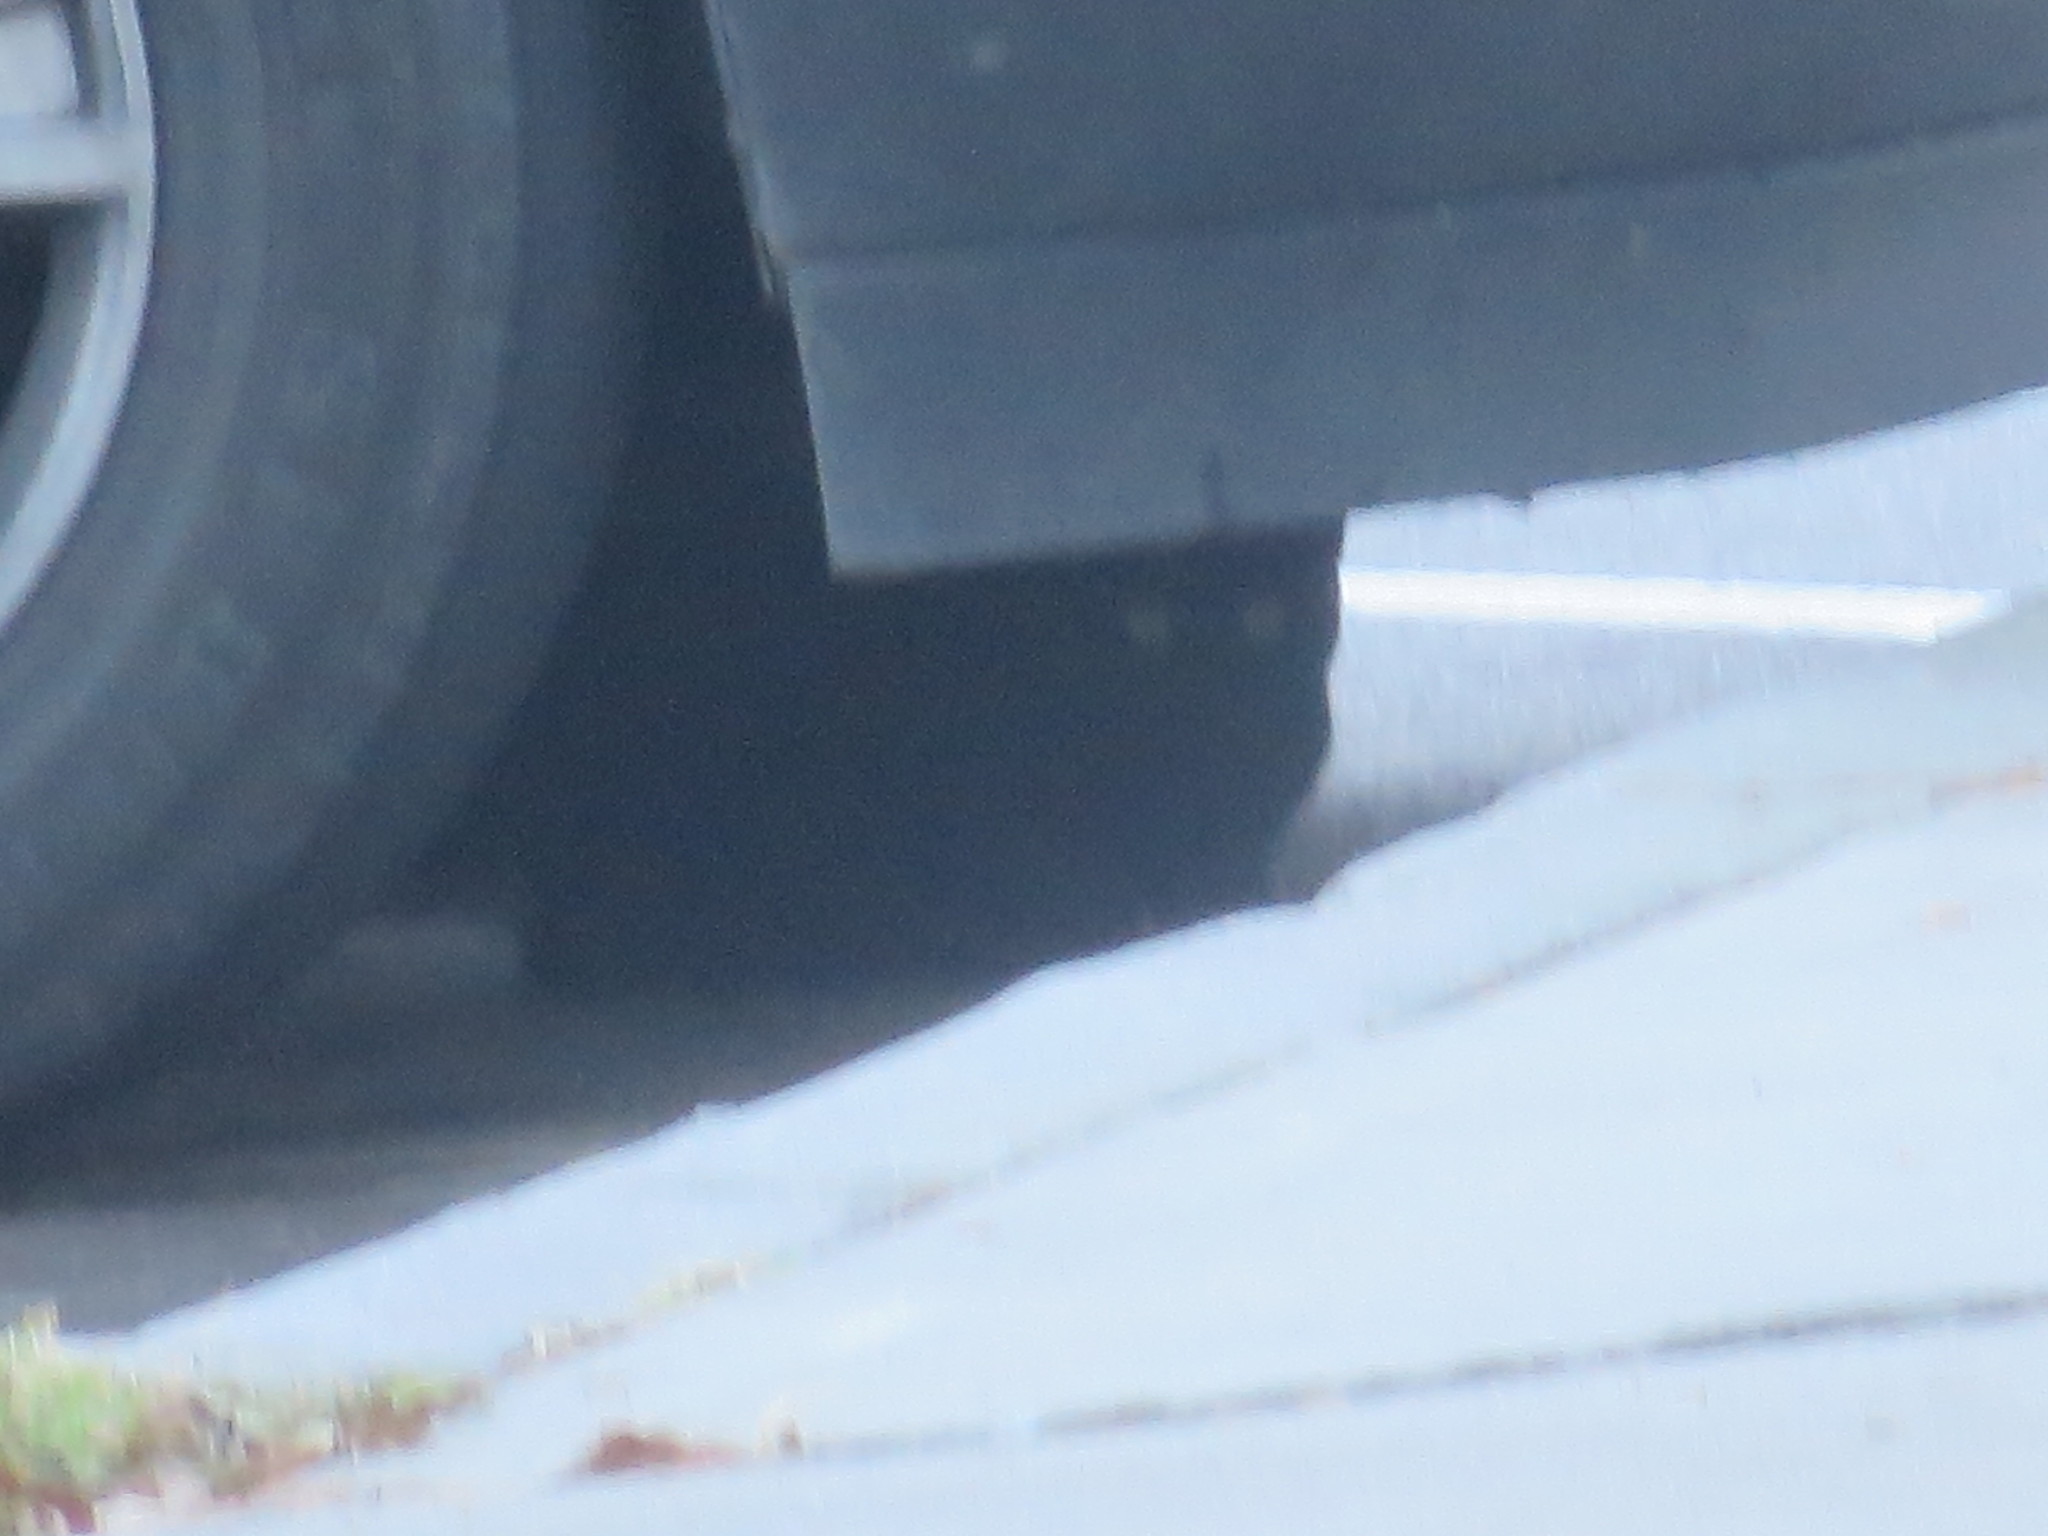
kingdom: Animalia
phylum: Chordata
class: Mammalia
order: Carnivora
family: Felidae
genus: Felis
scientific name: Felis catus
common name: Domestic cat
